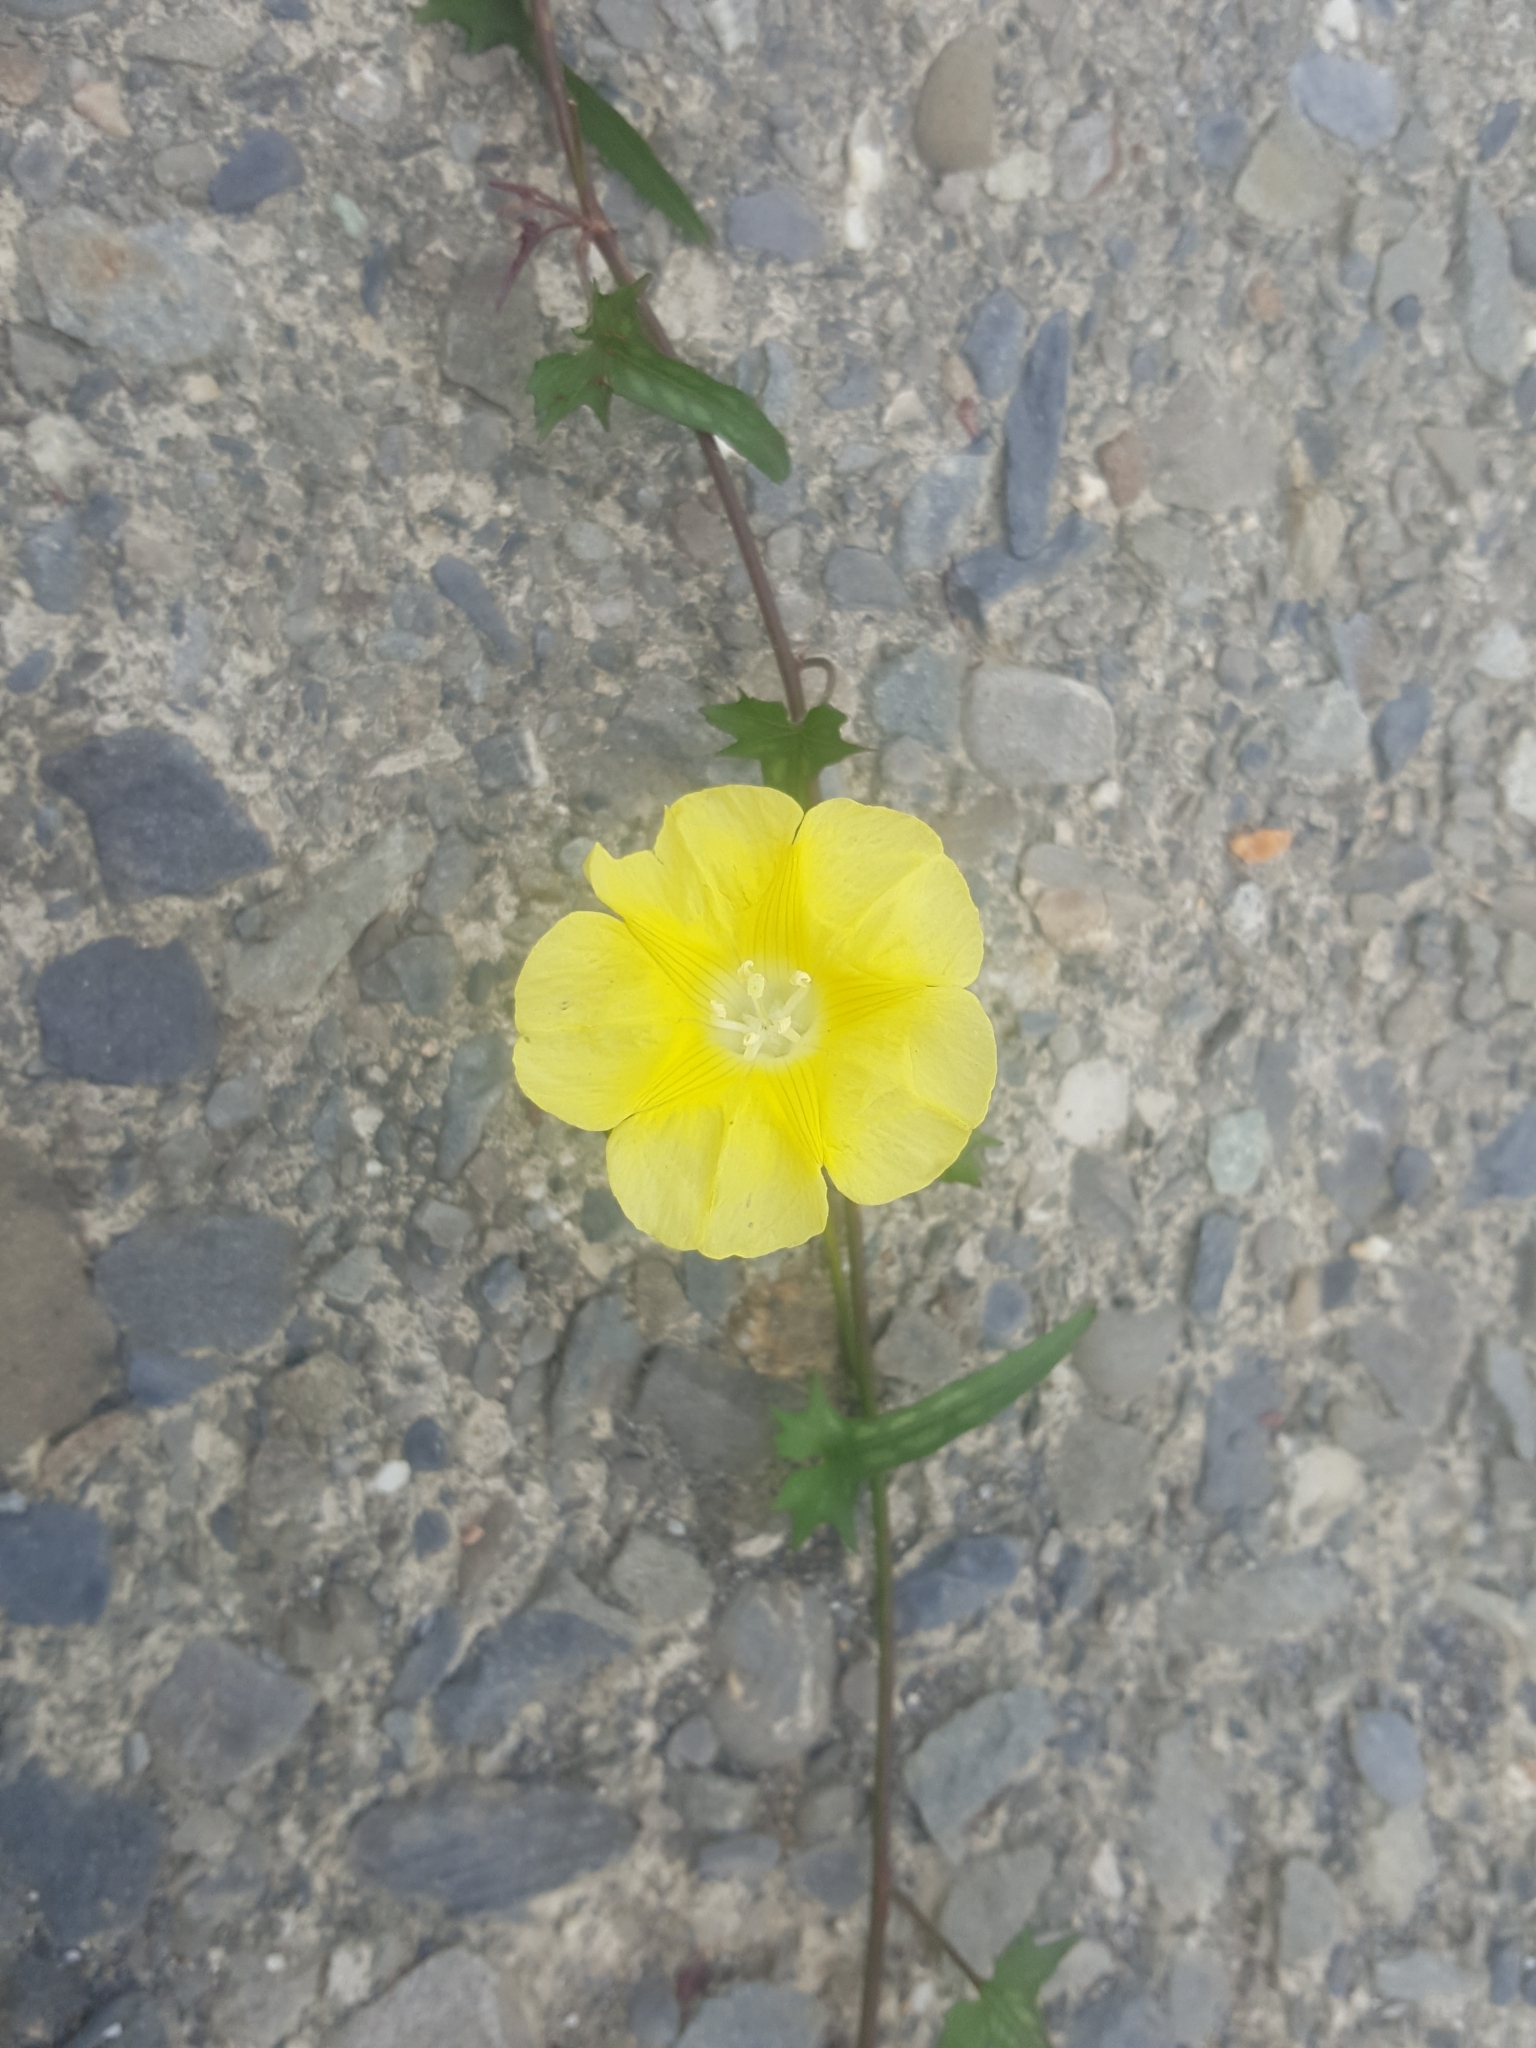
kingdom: Plantae
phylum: Tracheophyta
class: Magnoliopsida
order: Solanales
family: Convolvulaceae
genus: Merremia
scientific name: Merremia gemella
